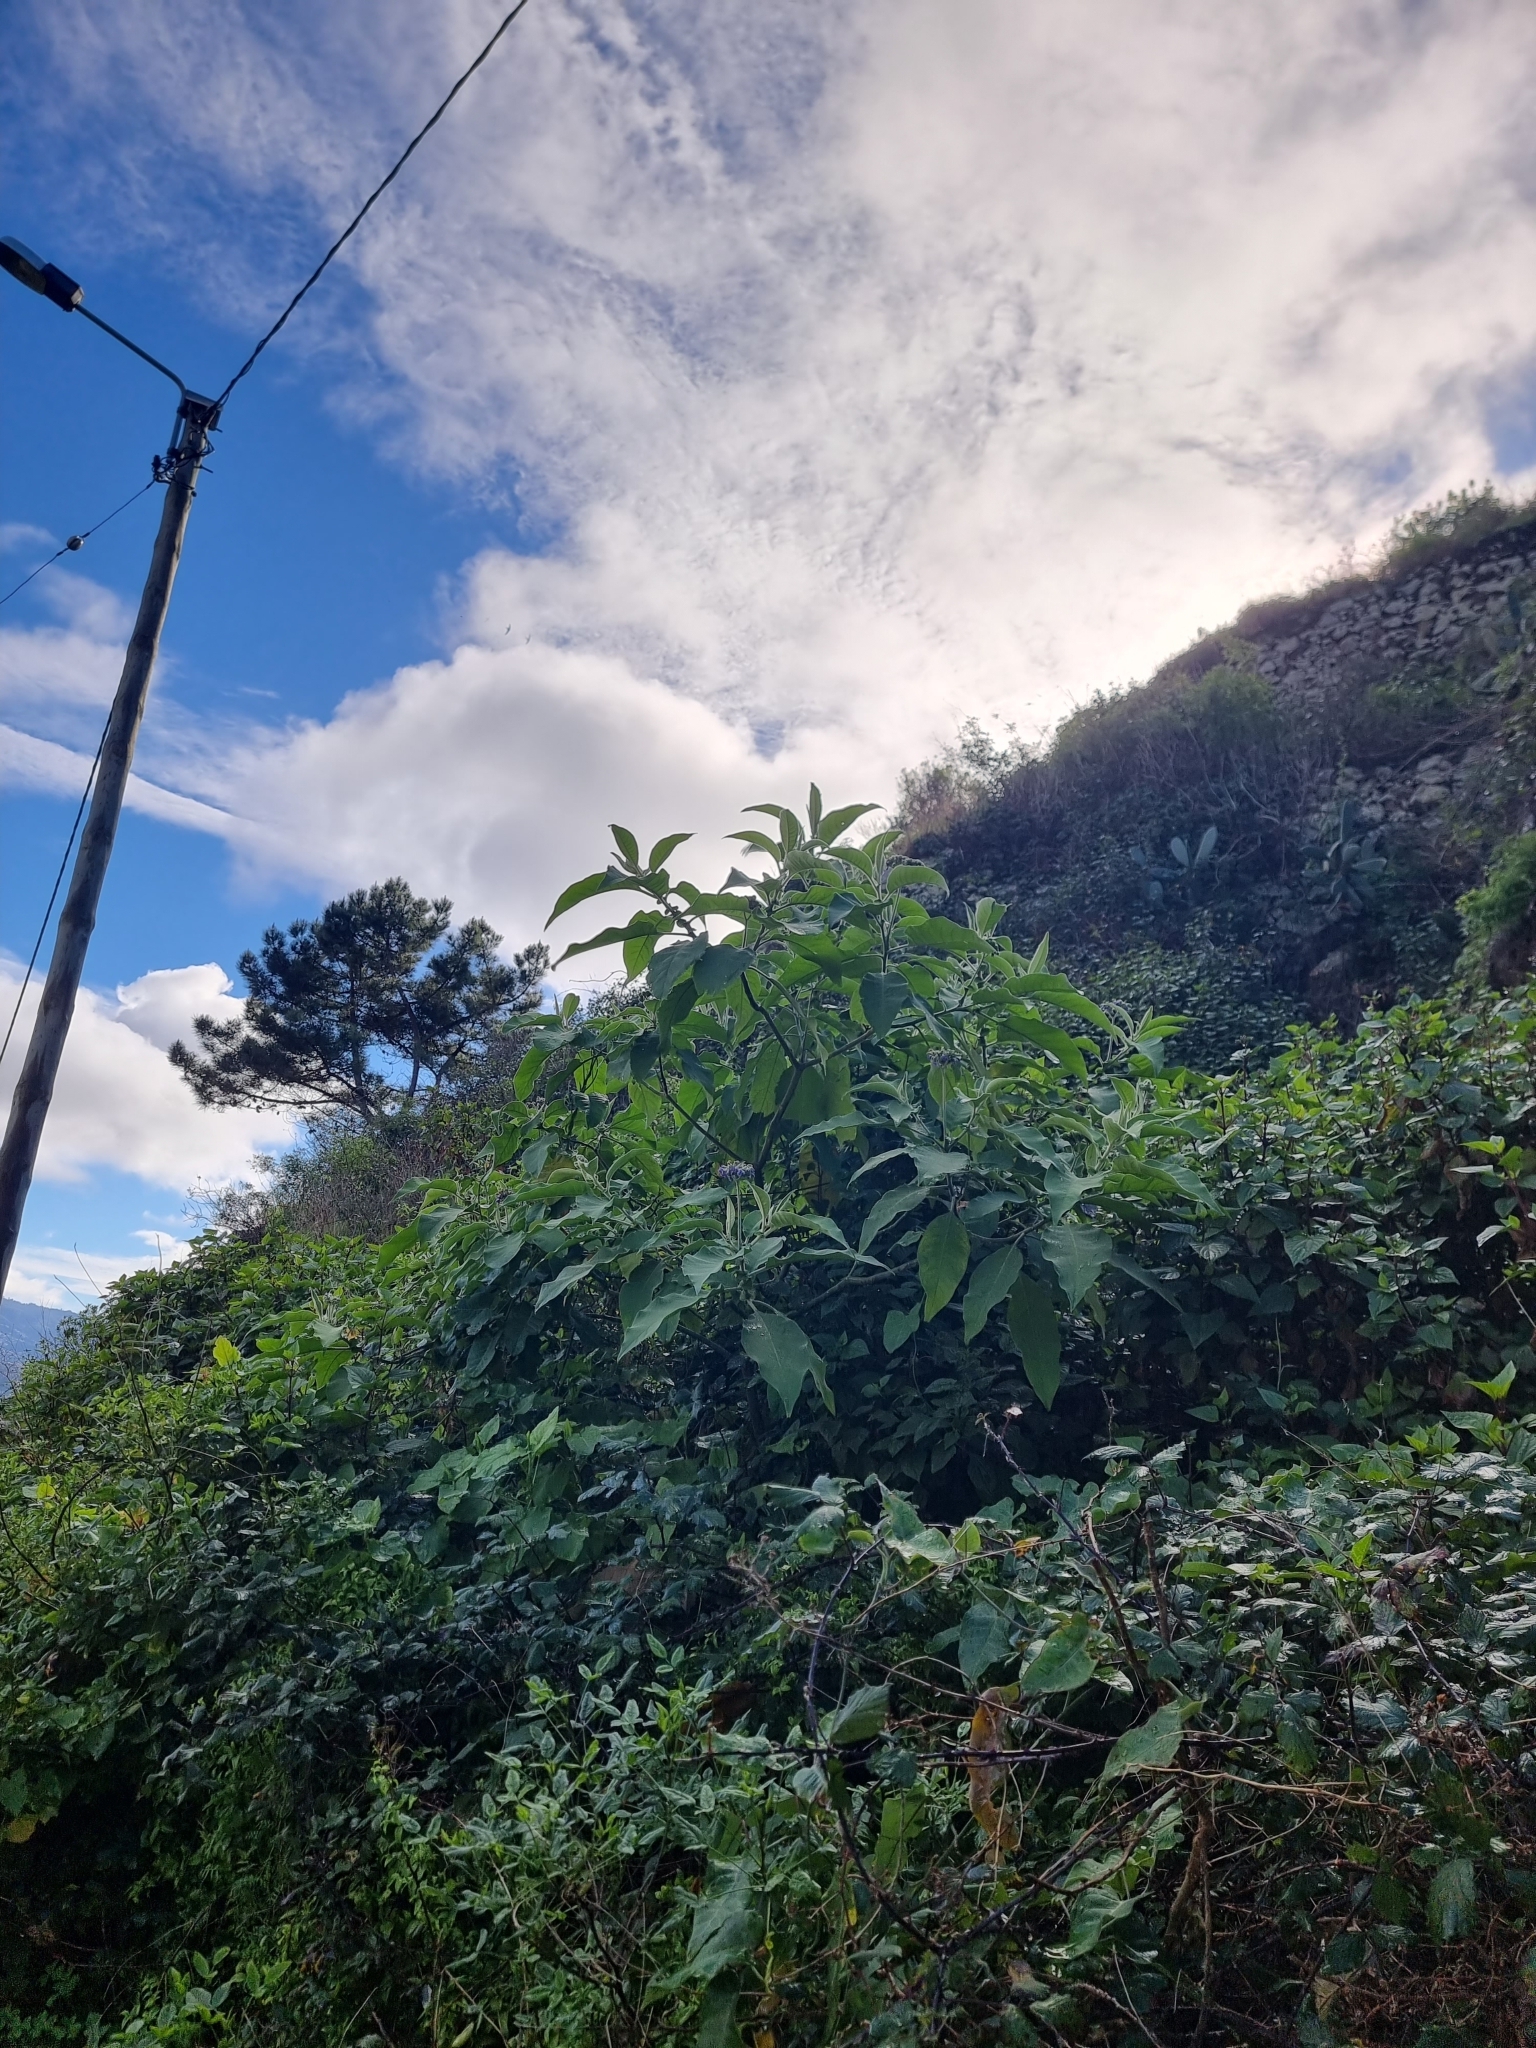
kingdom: Plantae
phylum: Tracheophyta
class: Magnoliopsida
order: Solanales
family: Solanaceae
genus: Solanum
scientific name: Solanum mauritianum
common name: Earleaf nightshade
